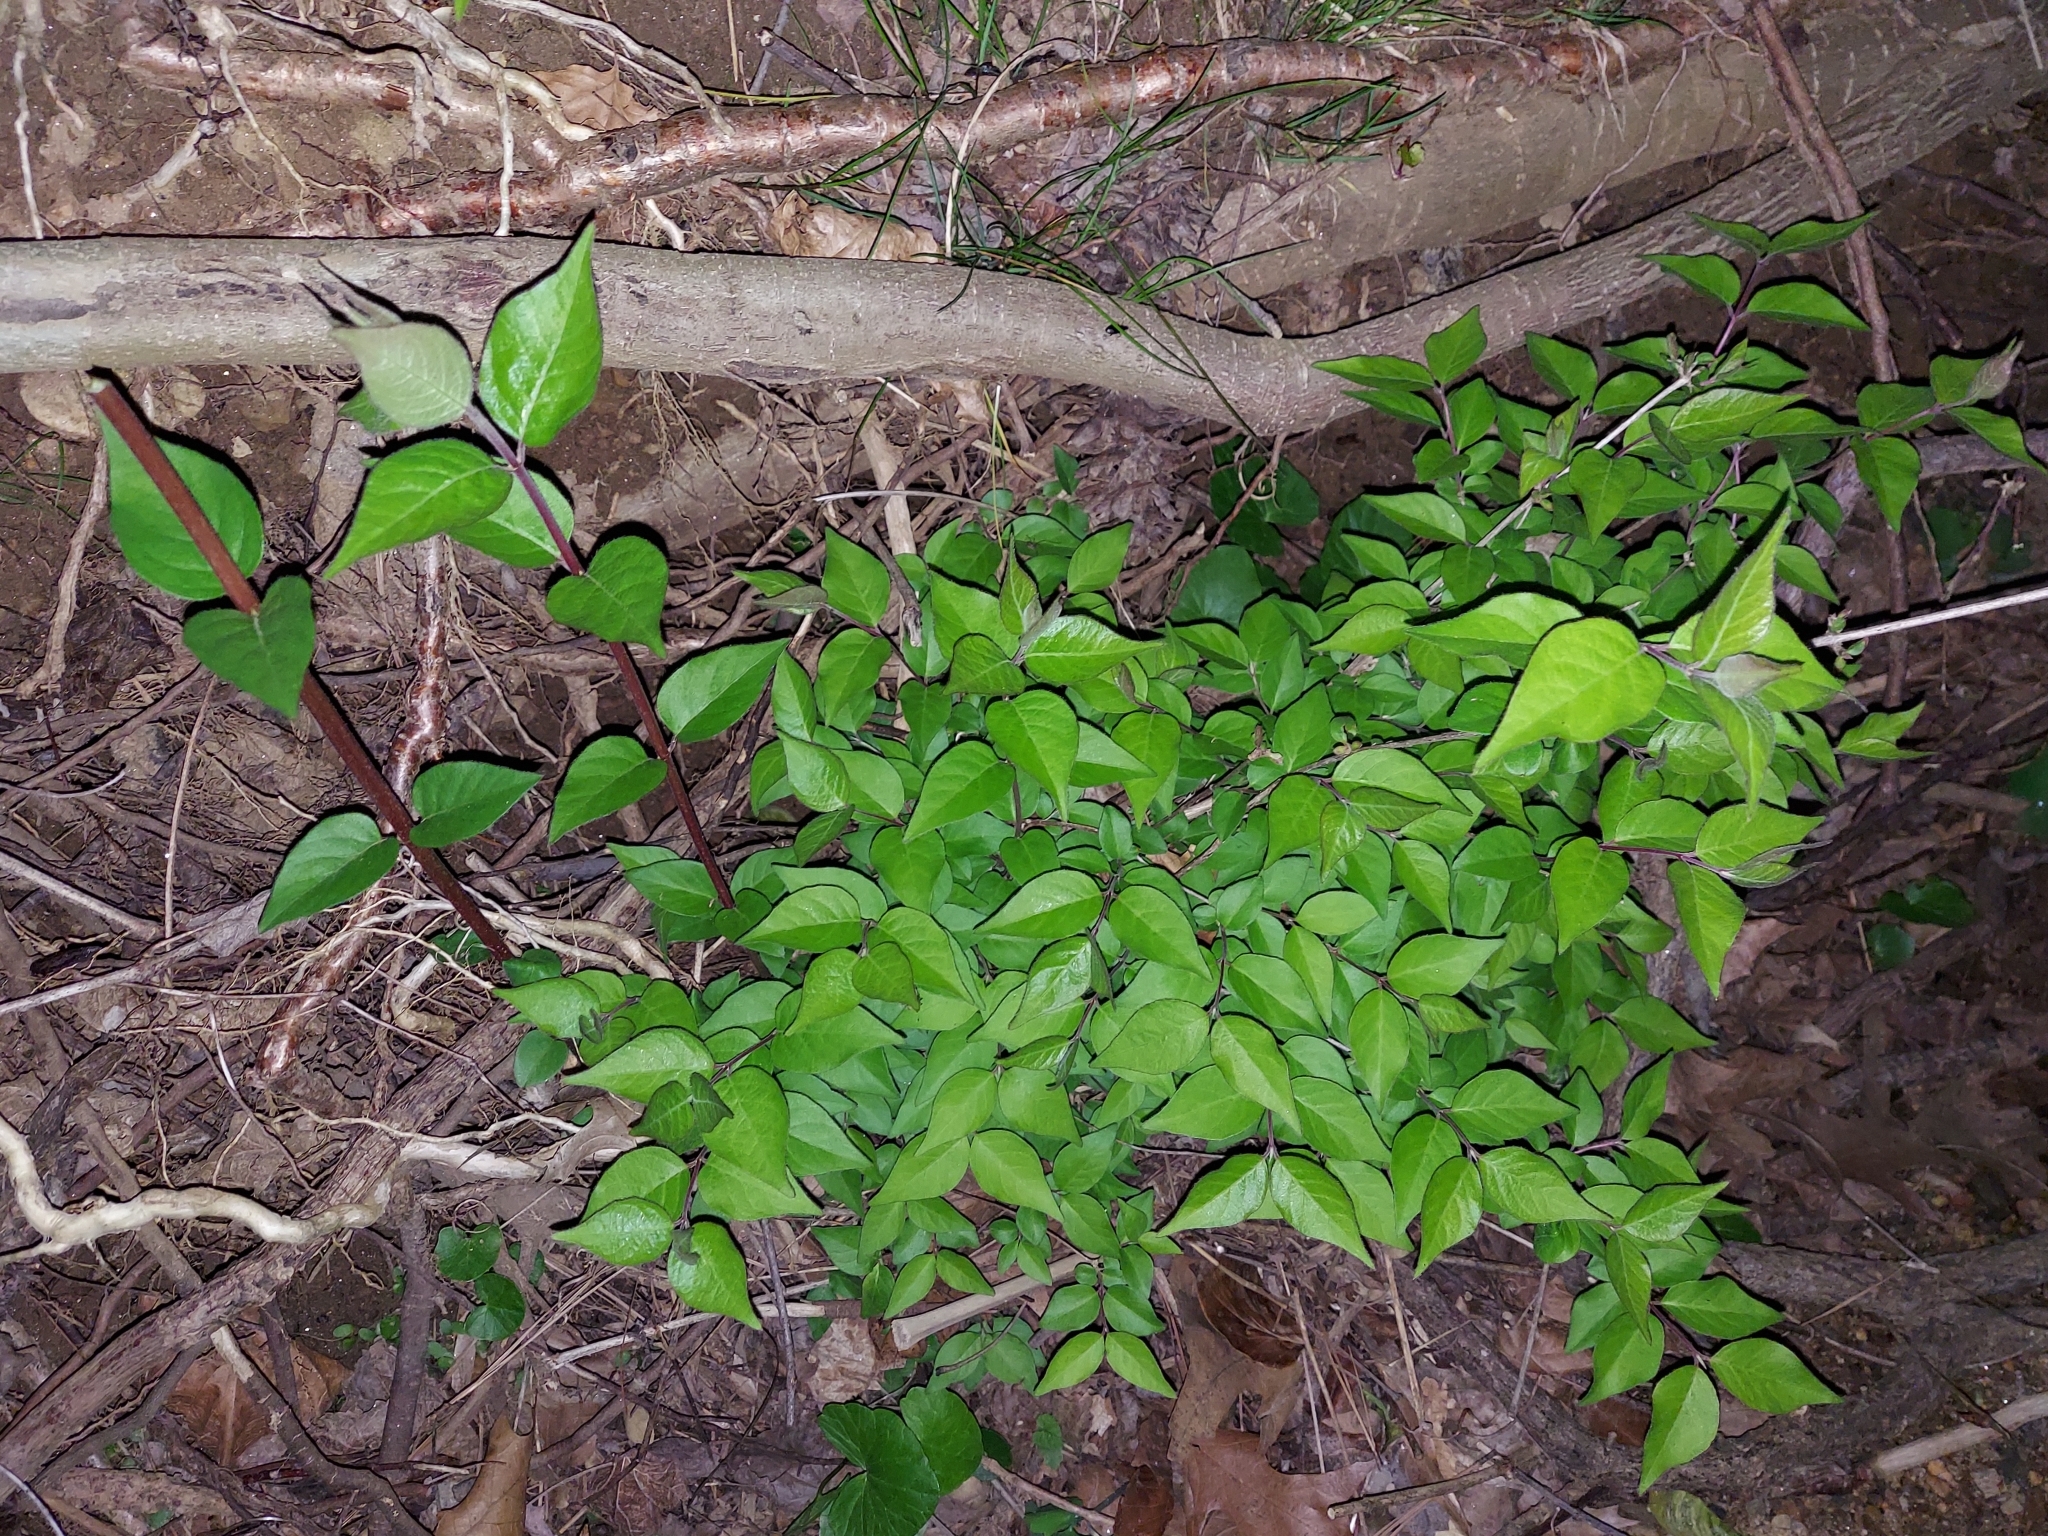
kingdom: Plantae
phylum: Tracheophyta
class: Magnoliopsida
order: Dipsacales
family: Caprifoliaceae
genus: Lonicera
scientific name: Lonicera maackii
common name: Amur honeysuckle
